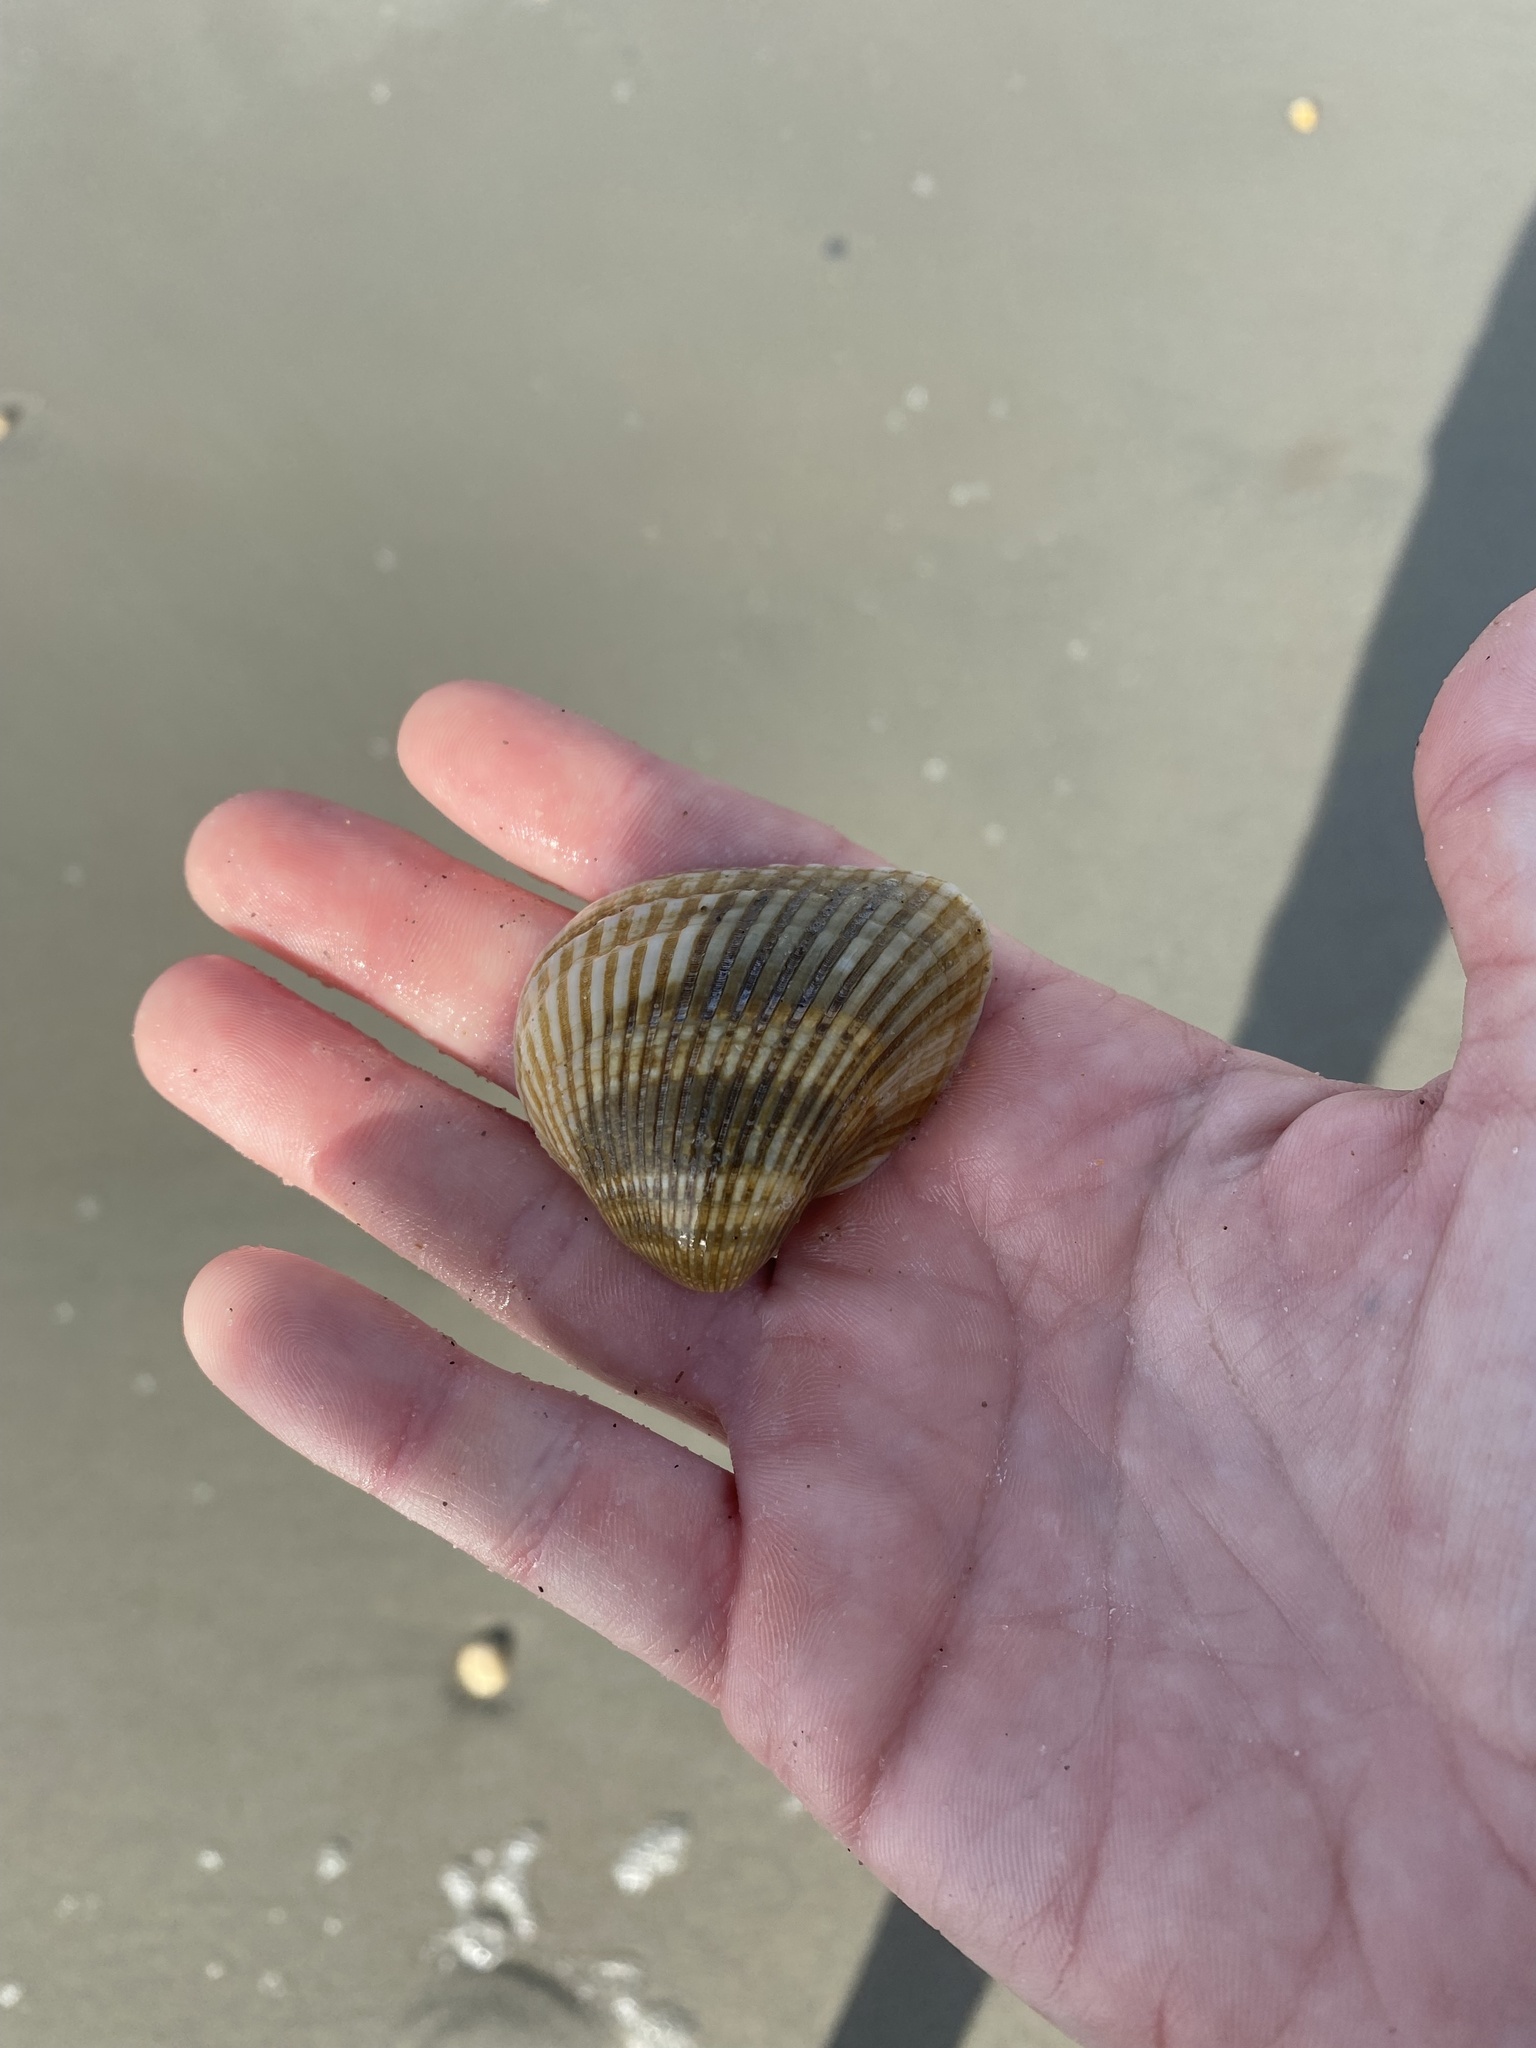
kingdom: Animalia
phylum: Mollusca
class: Bivalvia
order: Arcida
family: Noetiidae
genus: Noetia
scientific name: Noetia ponderosa
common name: Ponderous ark
